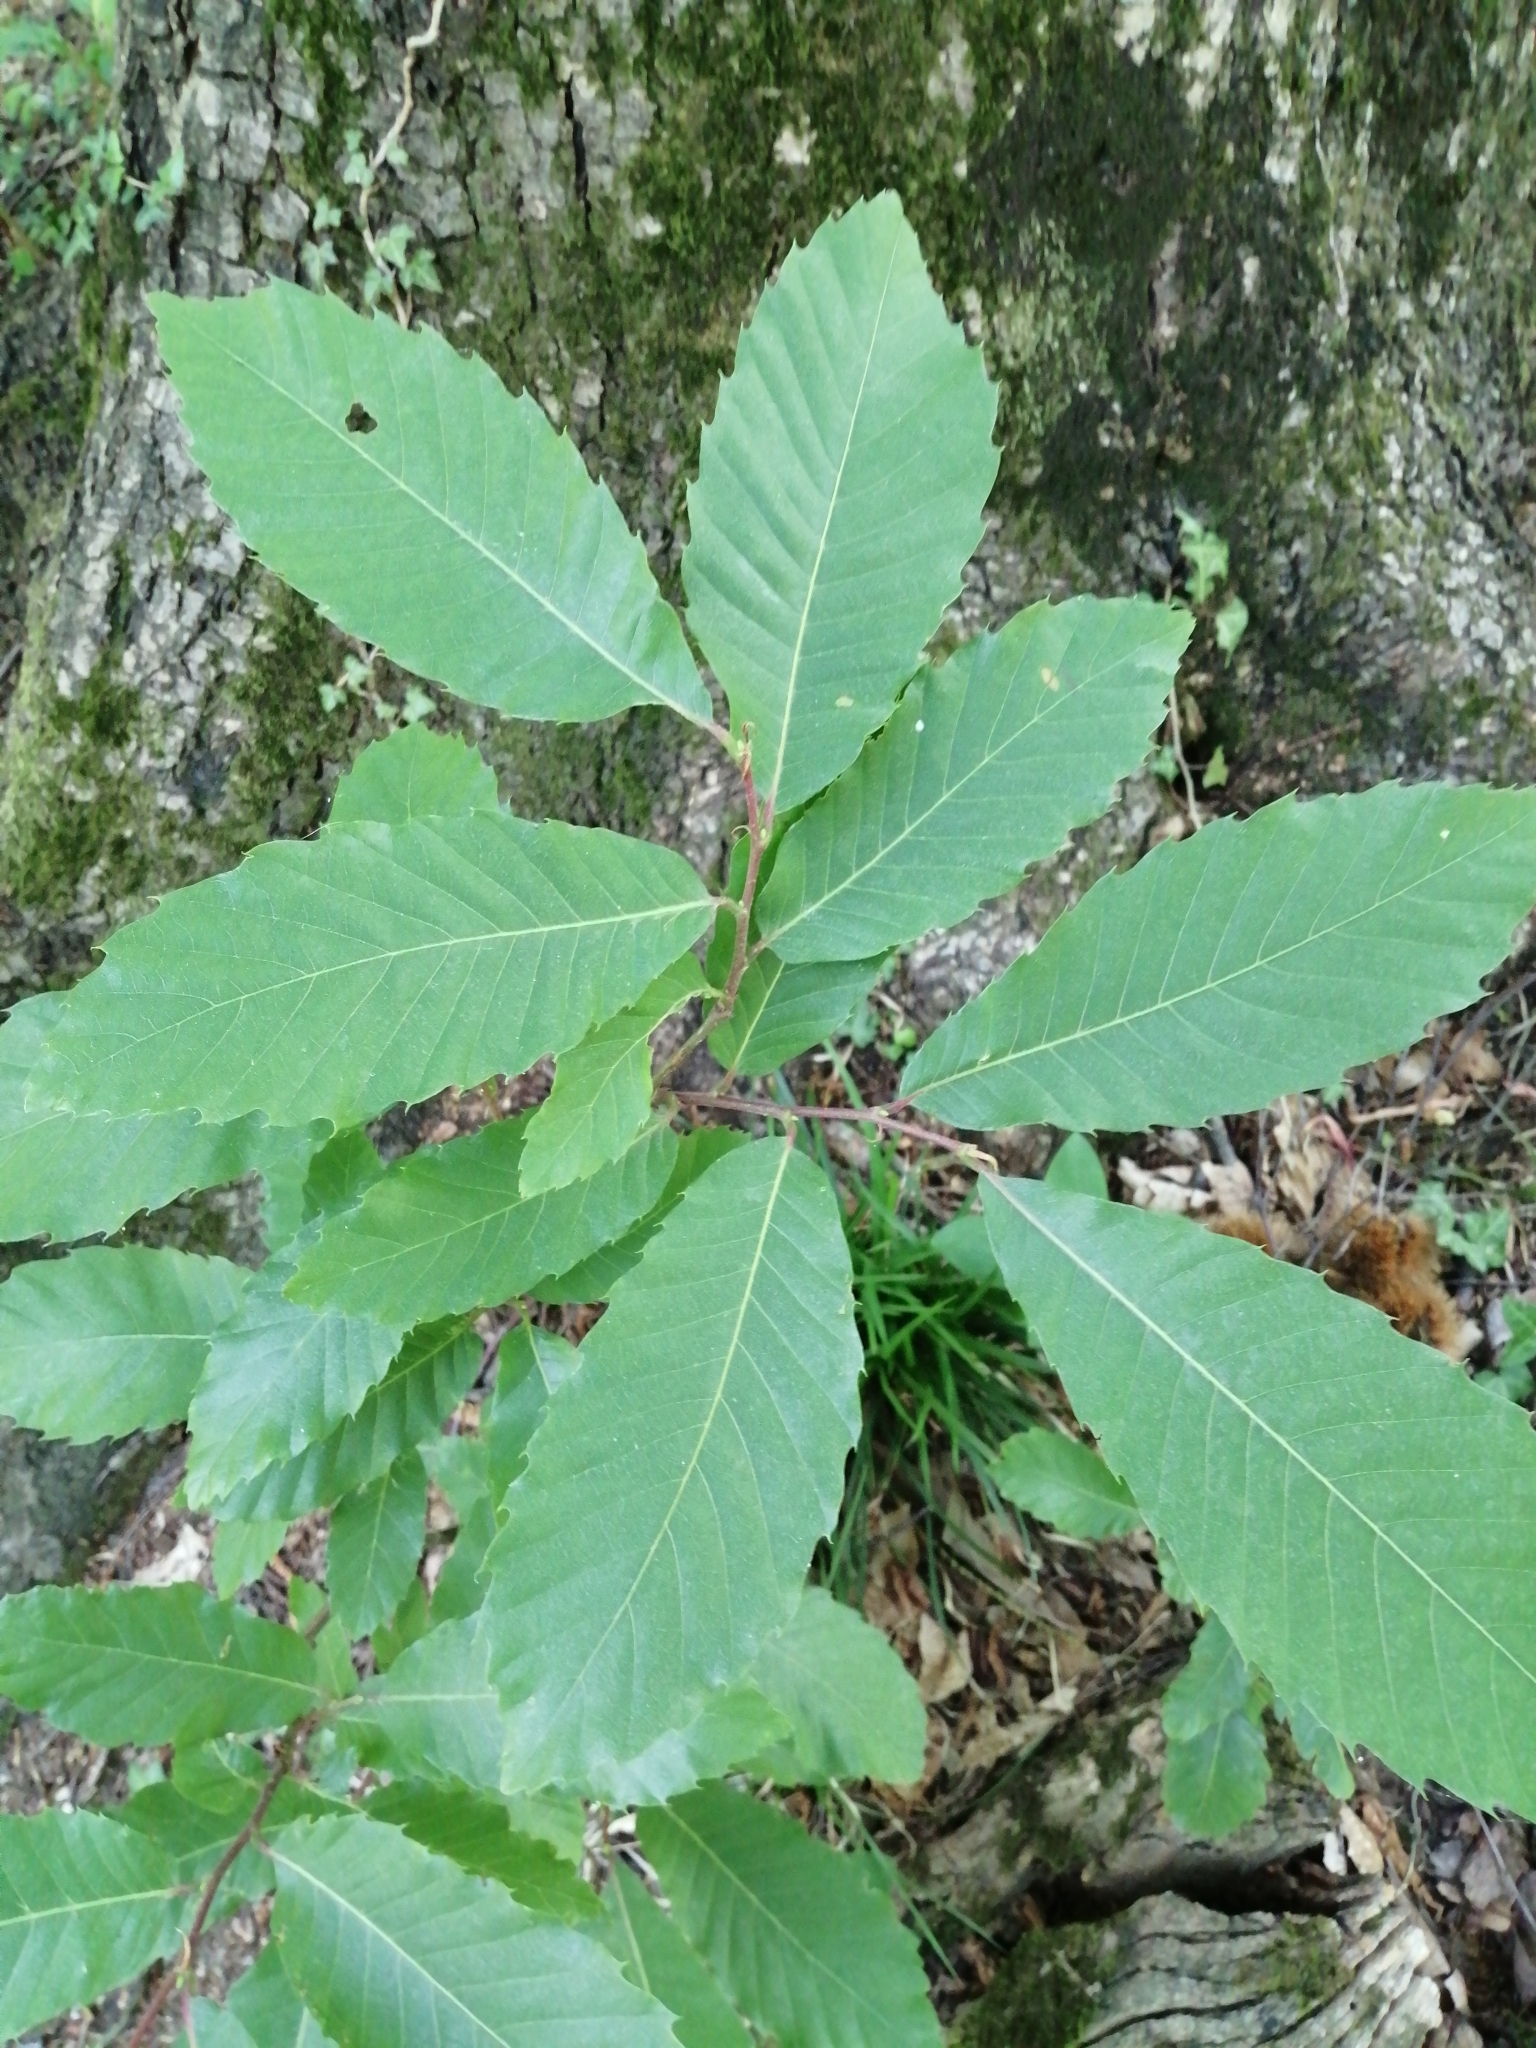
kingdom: Plantae
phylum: Tracheophyta
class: Magnoliopsida
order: Fagales
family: Fagaceae
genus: Castanea
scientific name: Castanea sativa
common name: Sweet chestnut
